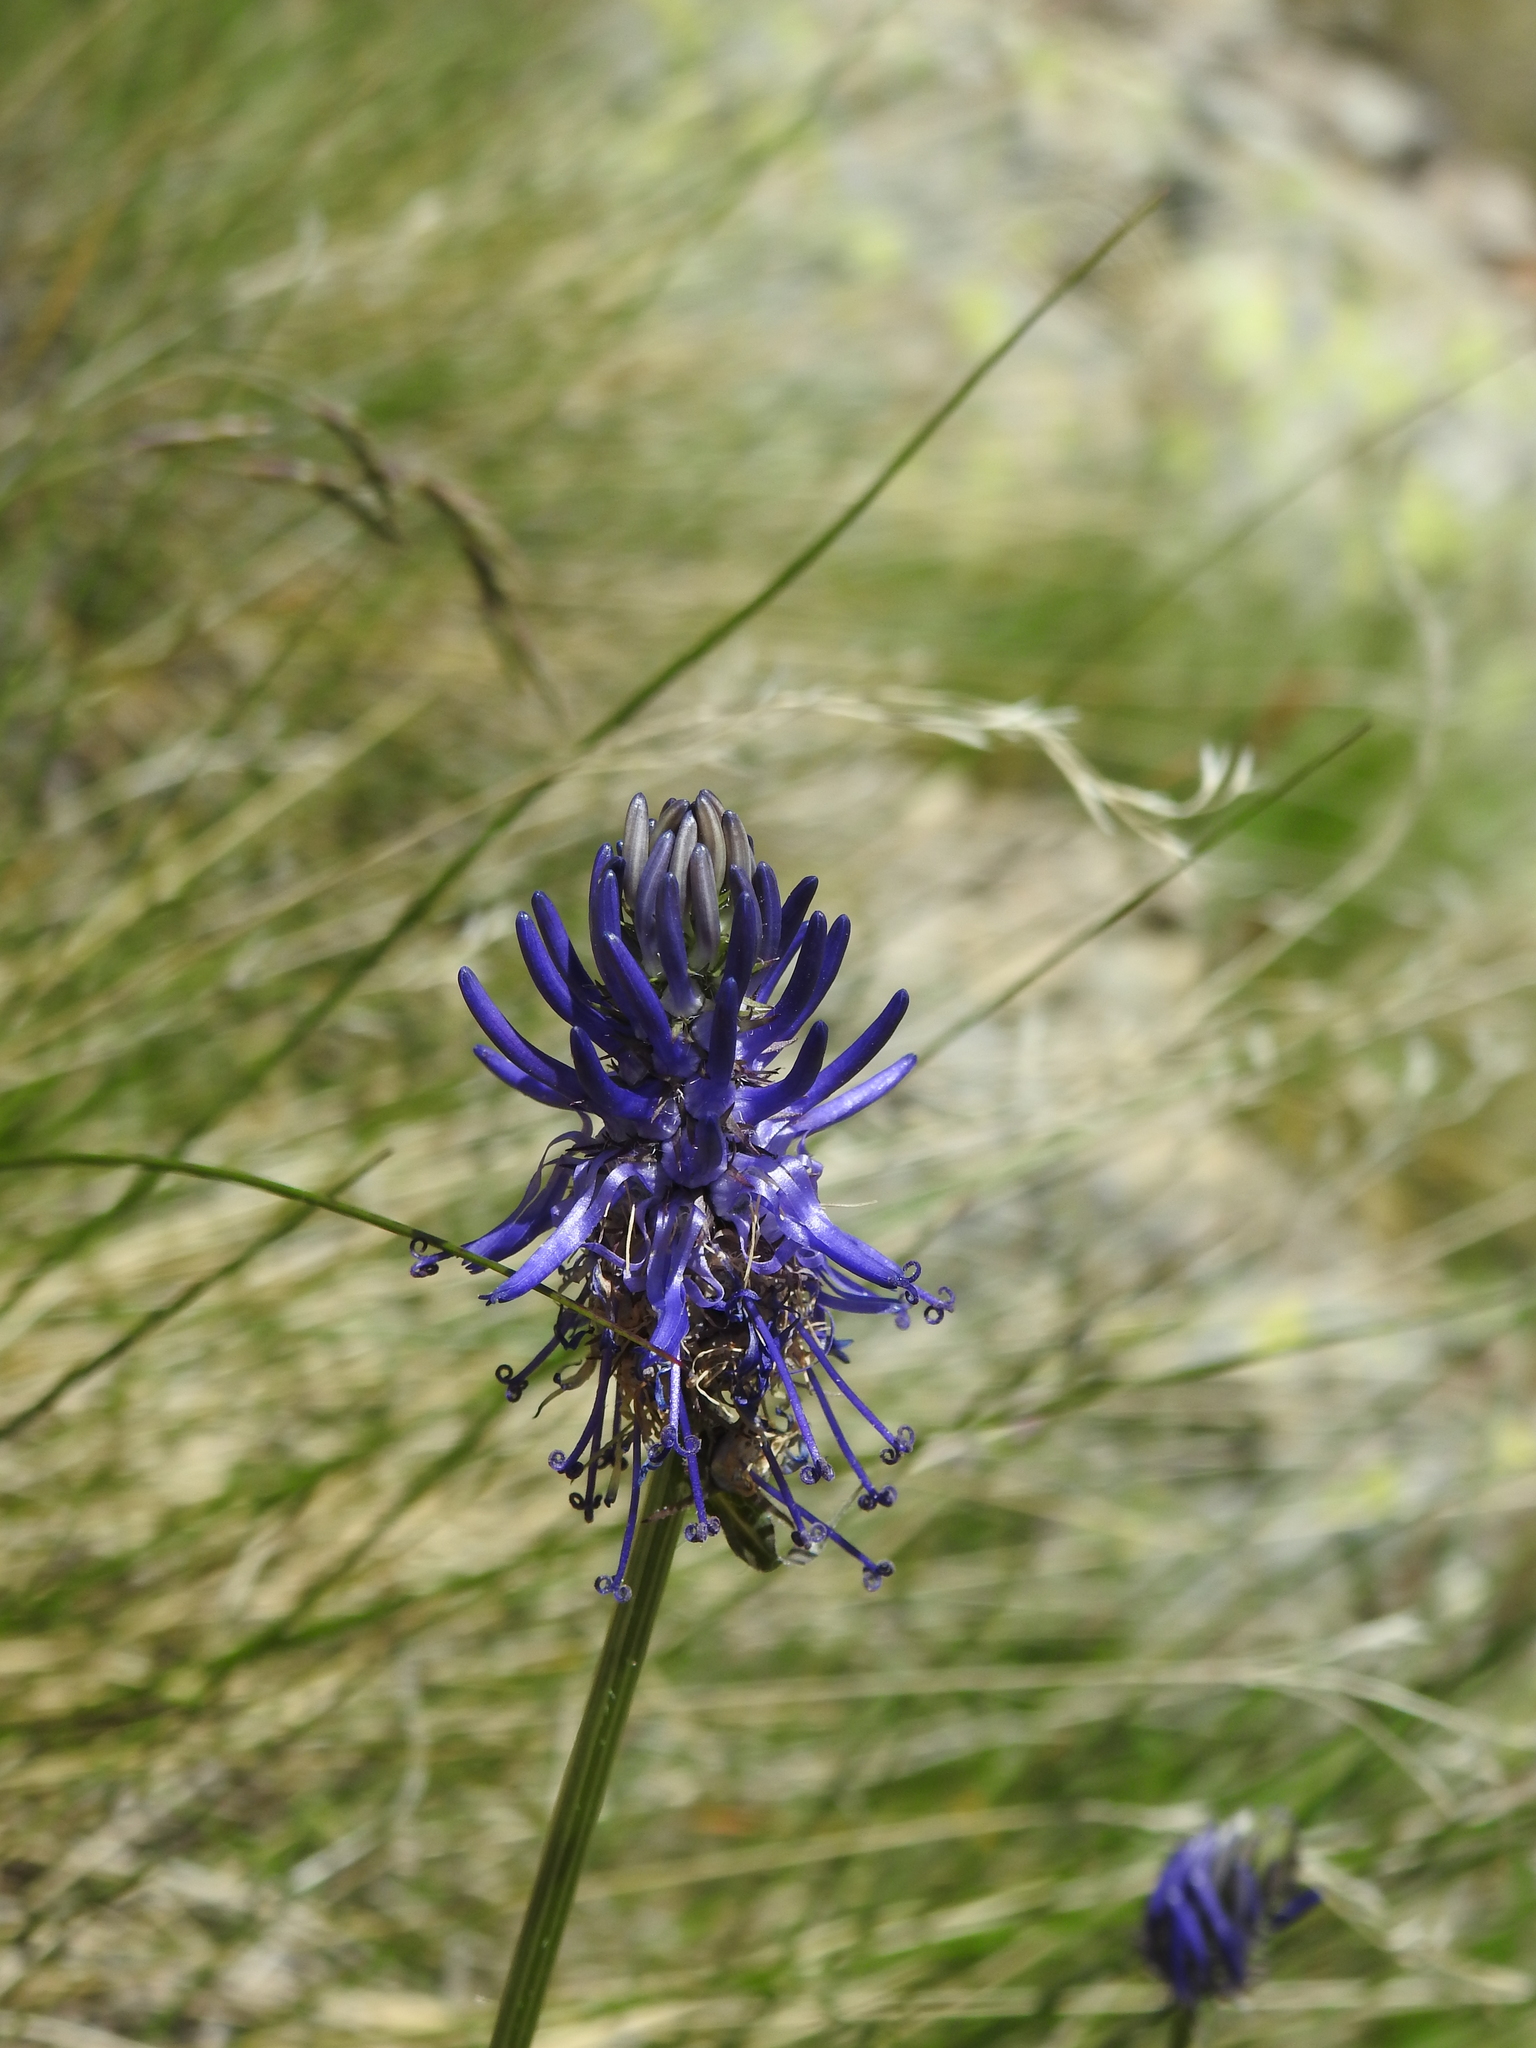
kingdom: Plantae
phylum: Tracheophyta
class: Magnoliopsida
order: Asterales
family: Campanulaceae
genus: Phyteuma
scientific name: Phyteuma betonicifolium
